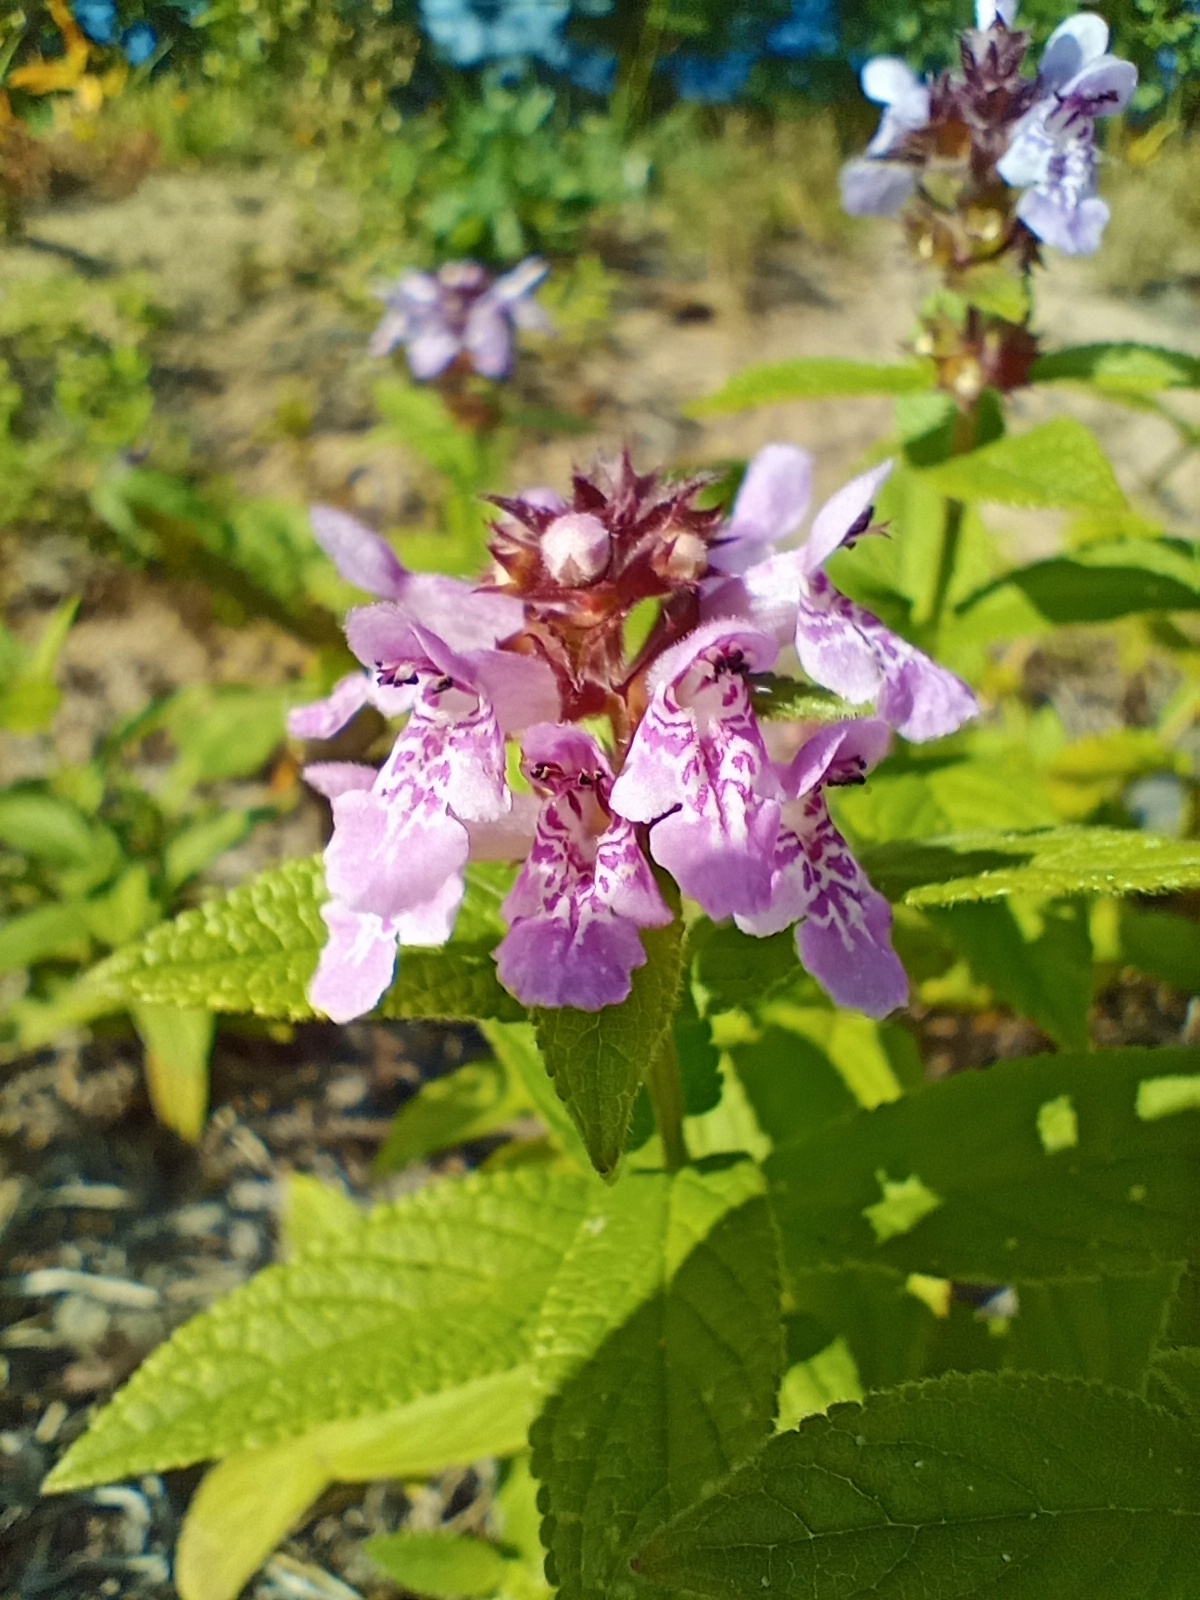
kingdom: Plantae
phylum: Tracheophyta
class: Magnoliopsida
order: Lamiales
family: Lamiaceae
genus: Stachys
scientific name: Stachys palustris
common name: Marsh woundwort
